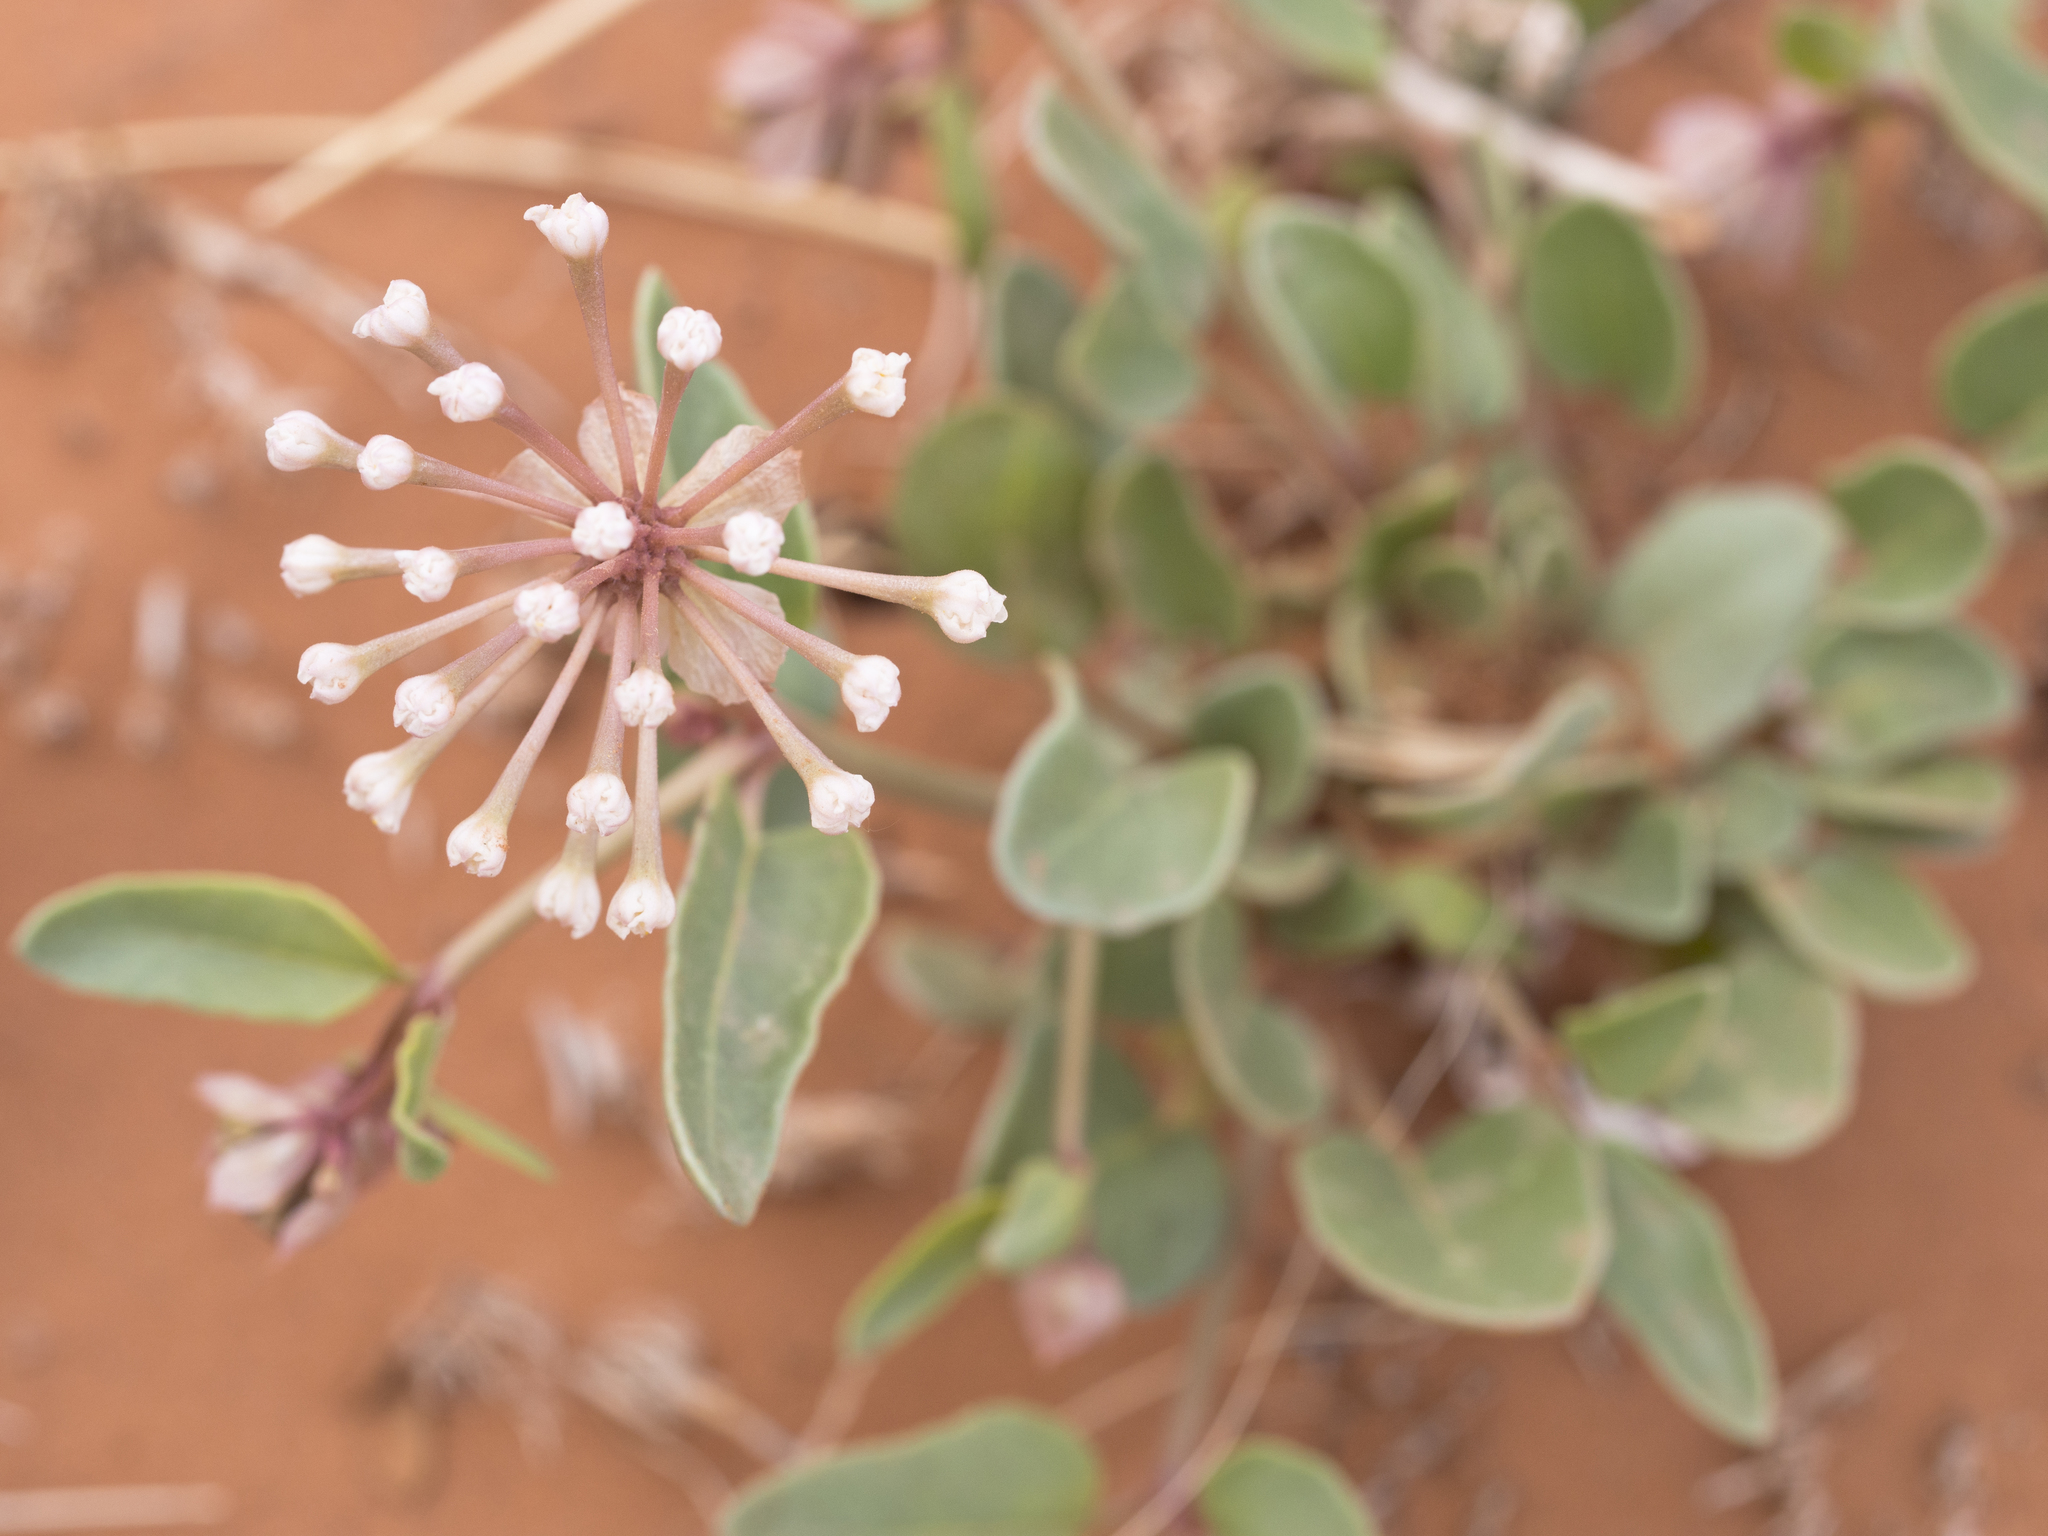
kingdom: Plantae
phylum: Tracheophyta
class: Magnoliopsida
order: Caryophyllales
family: Nyctaginaceae
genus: Abronia
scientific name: Abronia elliptica
